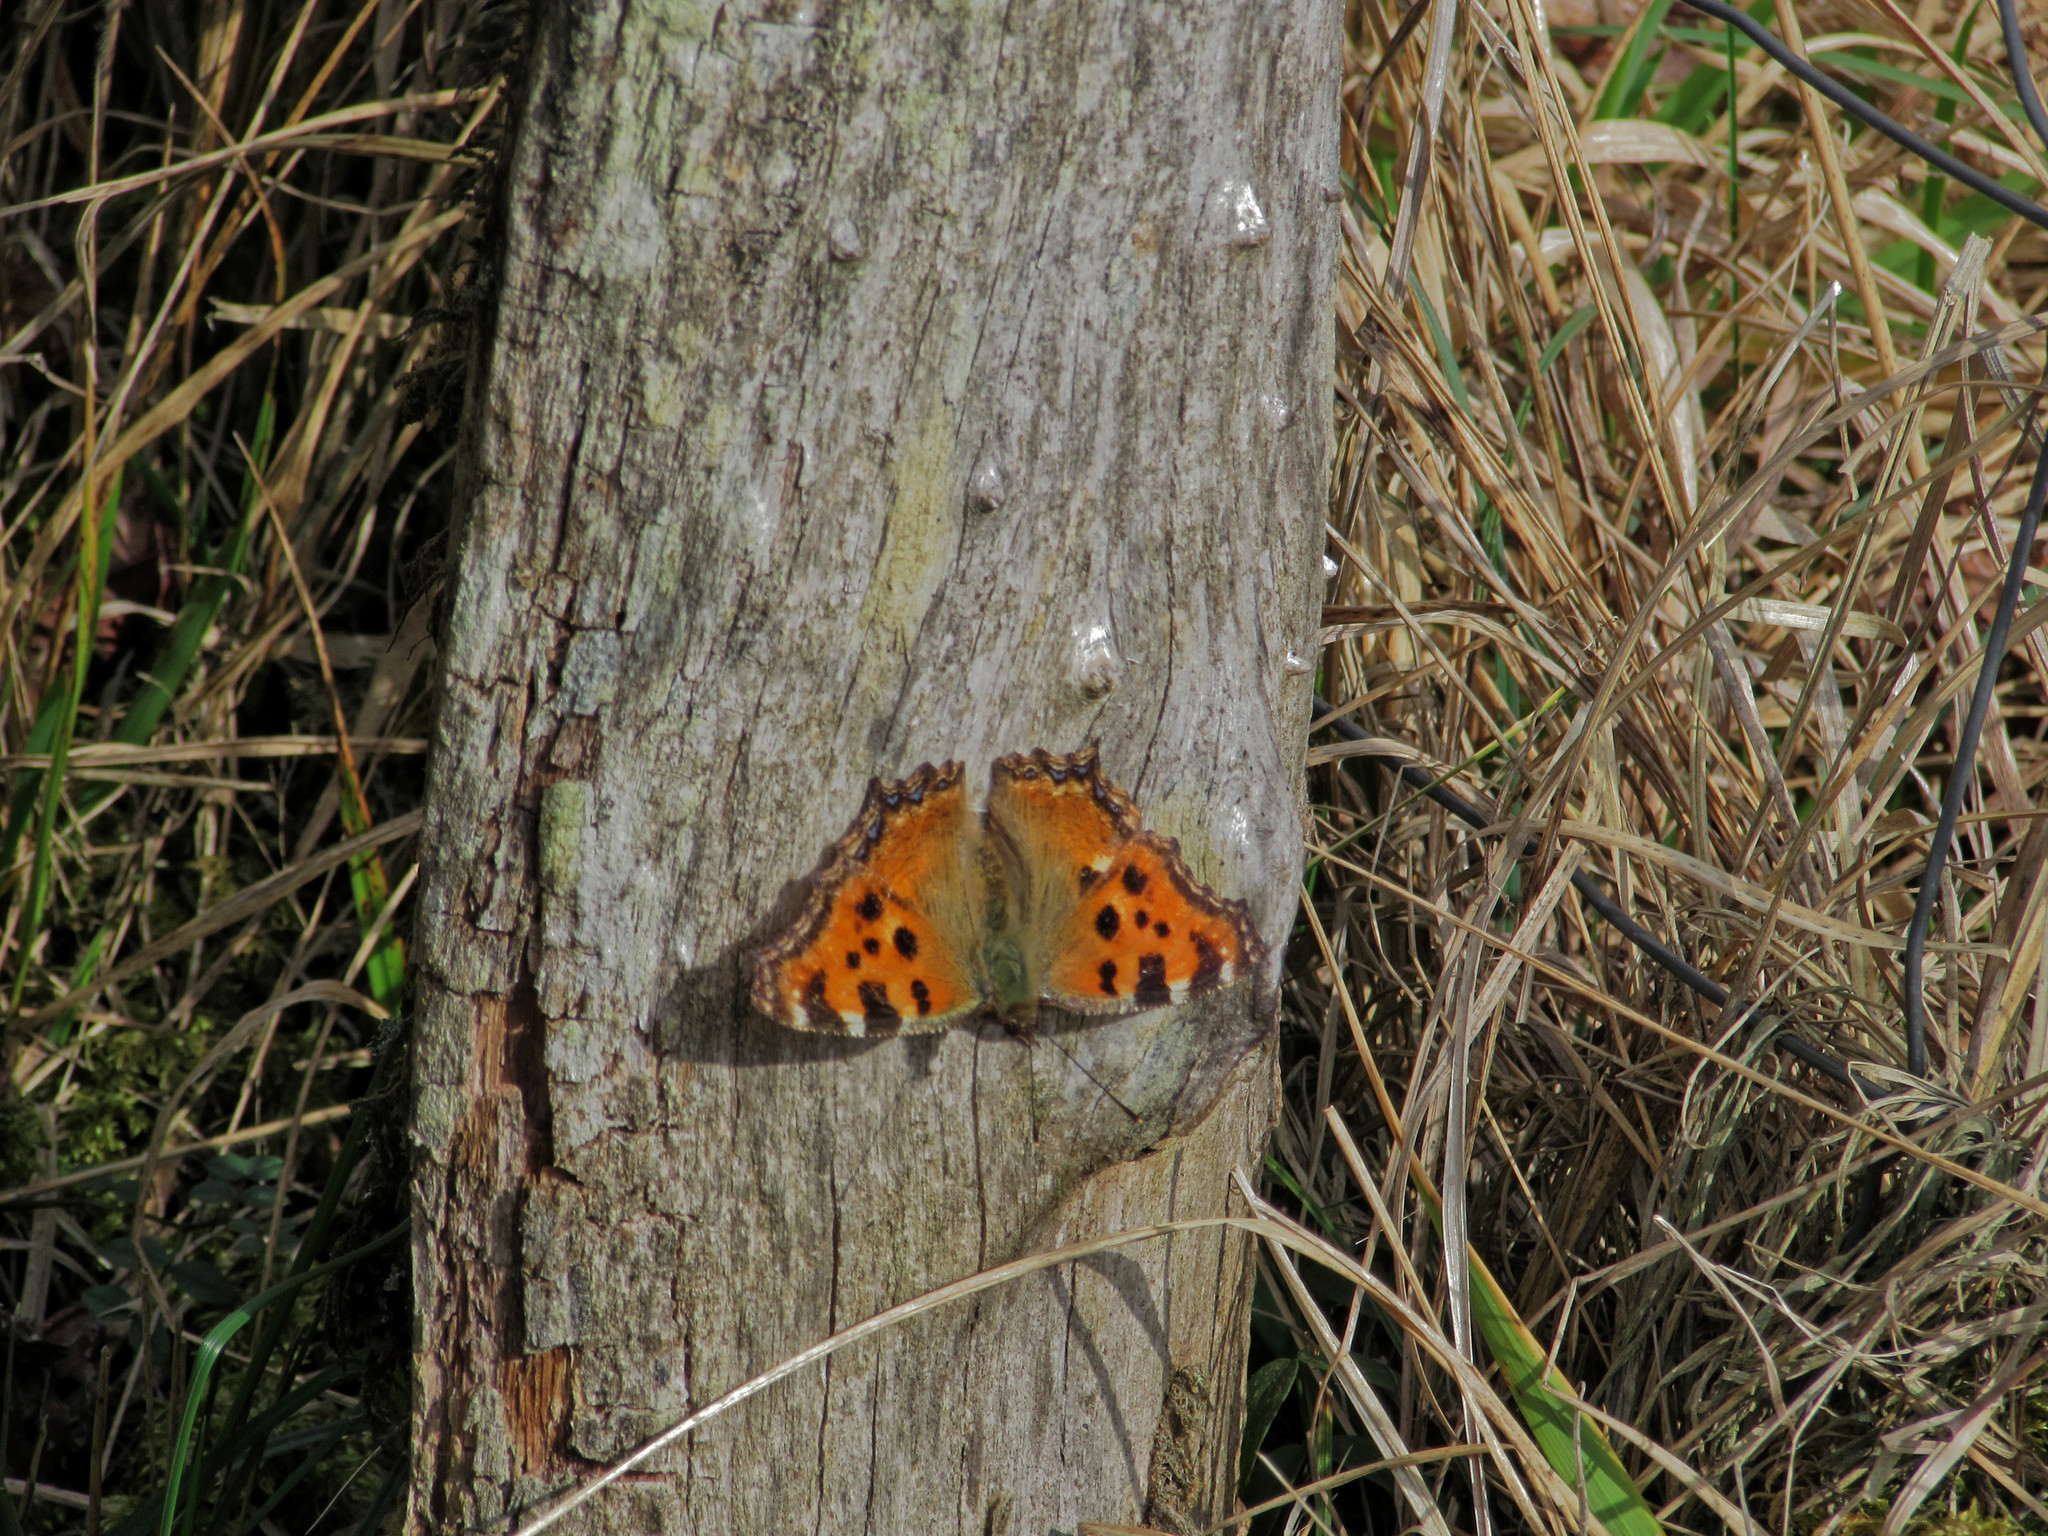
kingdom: Animalia
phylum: Arthropoda
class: Insecta
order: Lepidoptera
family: Nymphalidae
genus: Nymphalis
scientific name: Nymphalis polychloros
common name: Large tortoiseshell
